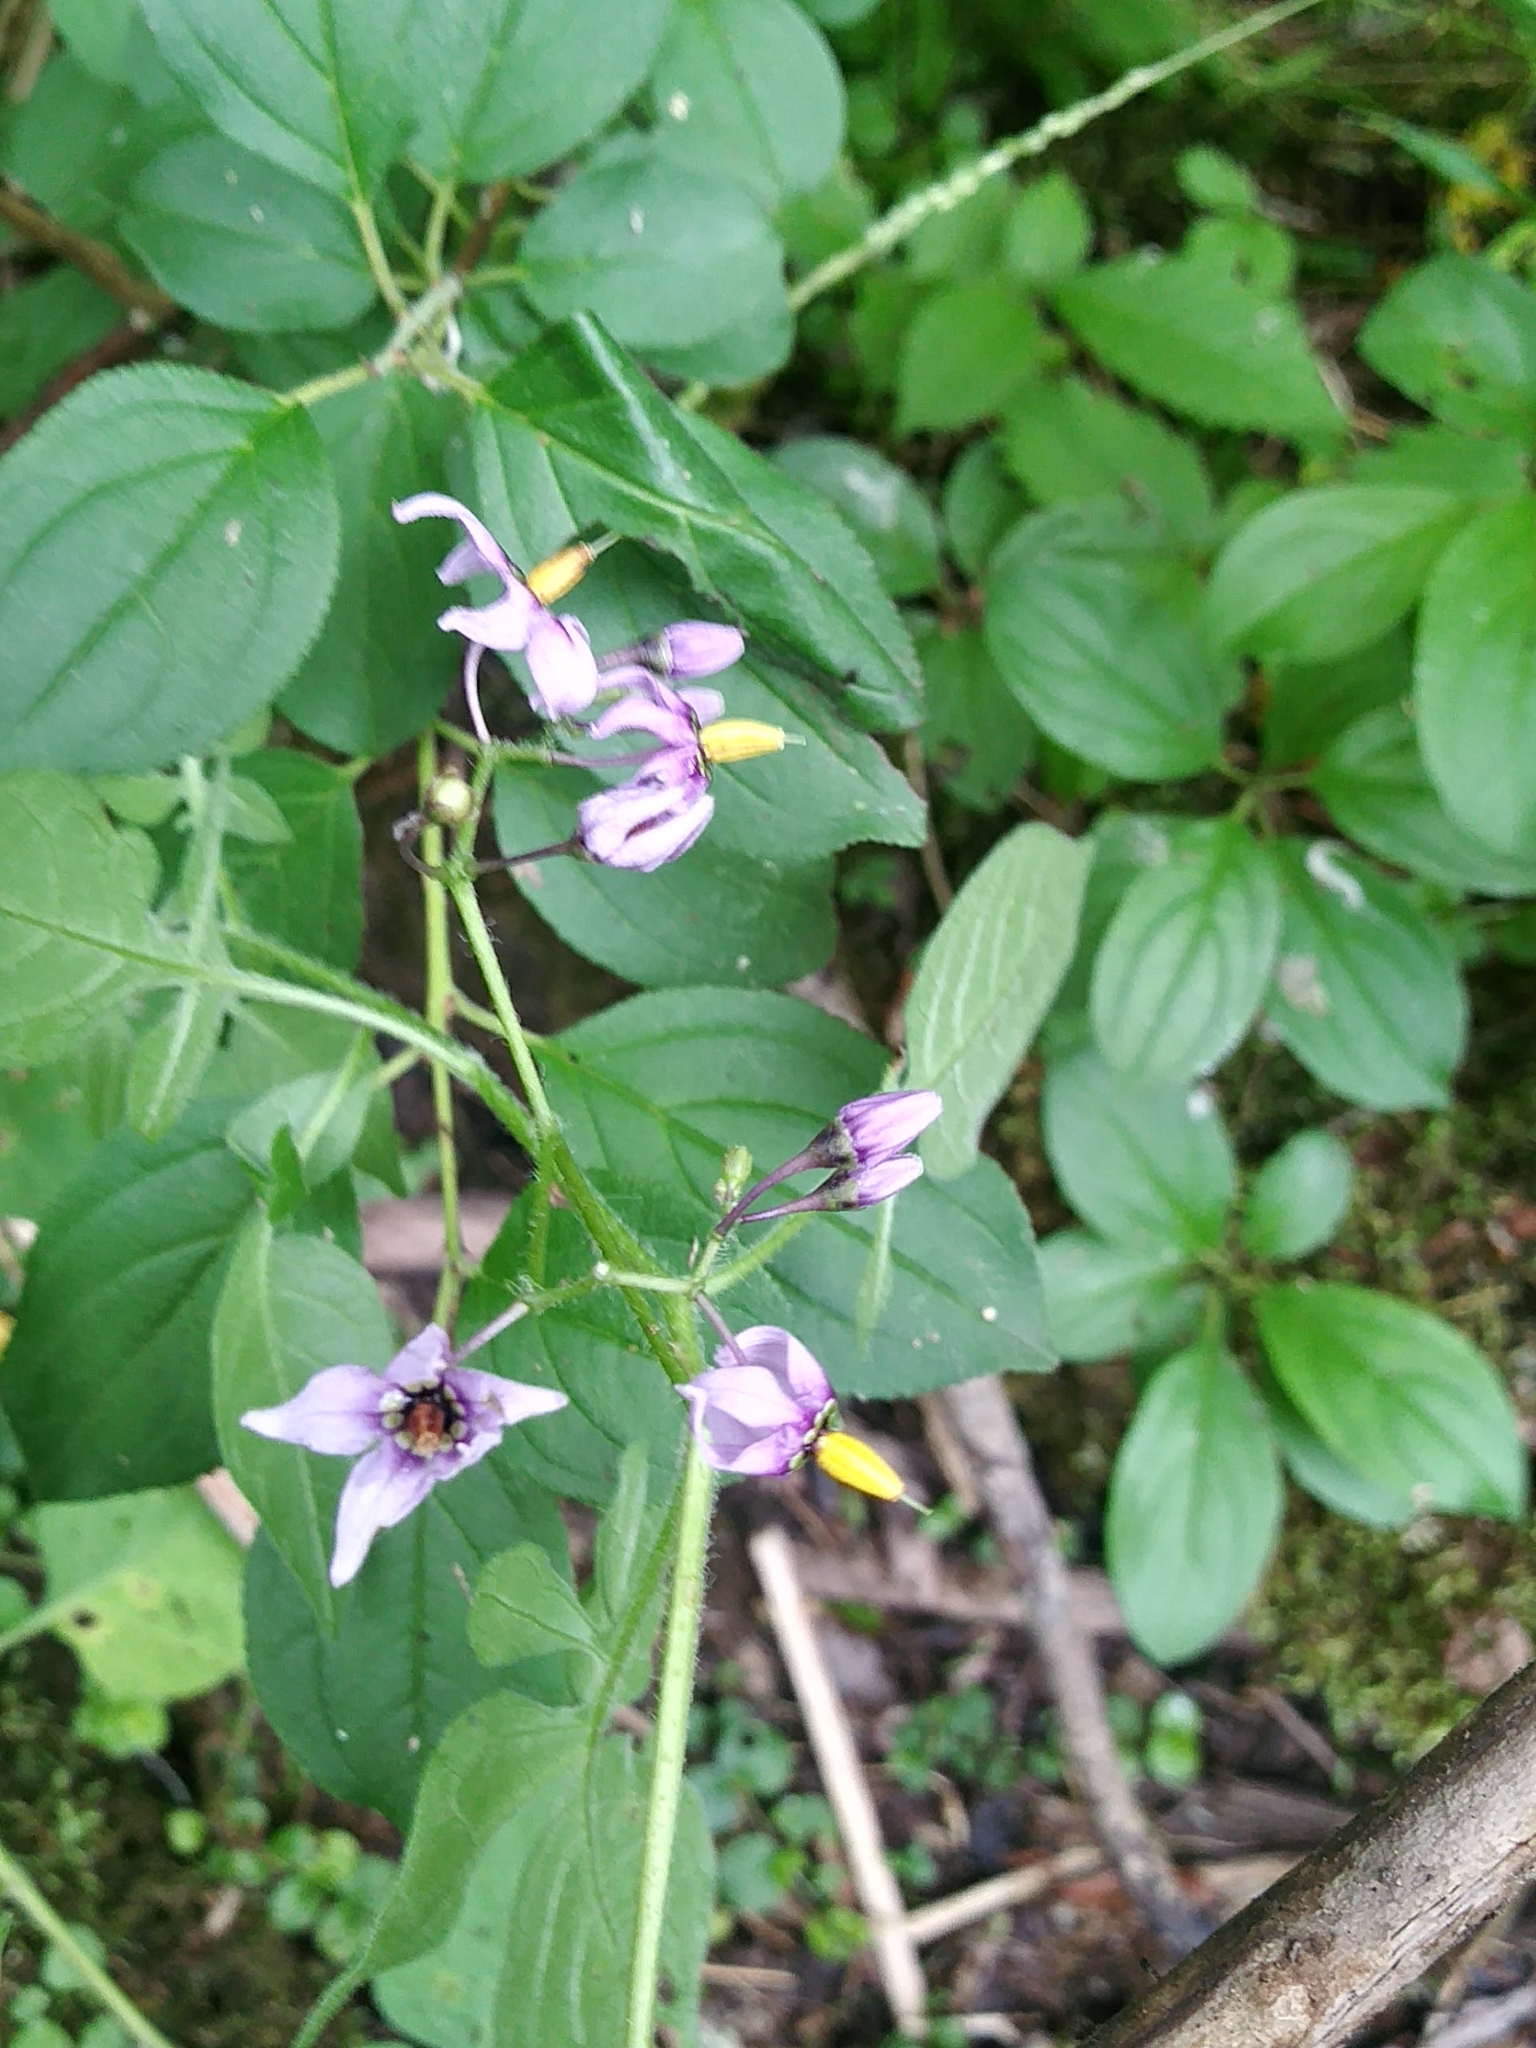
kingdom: Plantae
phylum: Tracheophyta
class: Magnoliopsida
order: Solanales
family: Solanaceae
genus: Solanum
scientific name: Solanum dulcamara
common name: Climbing nightshade
